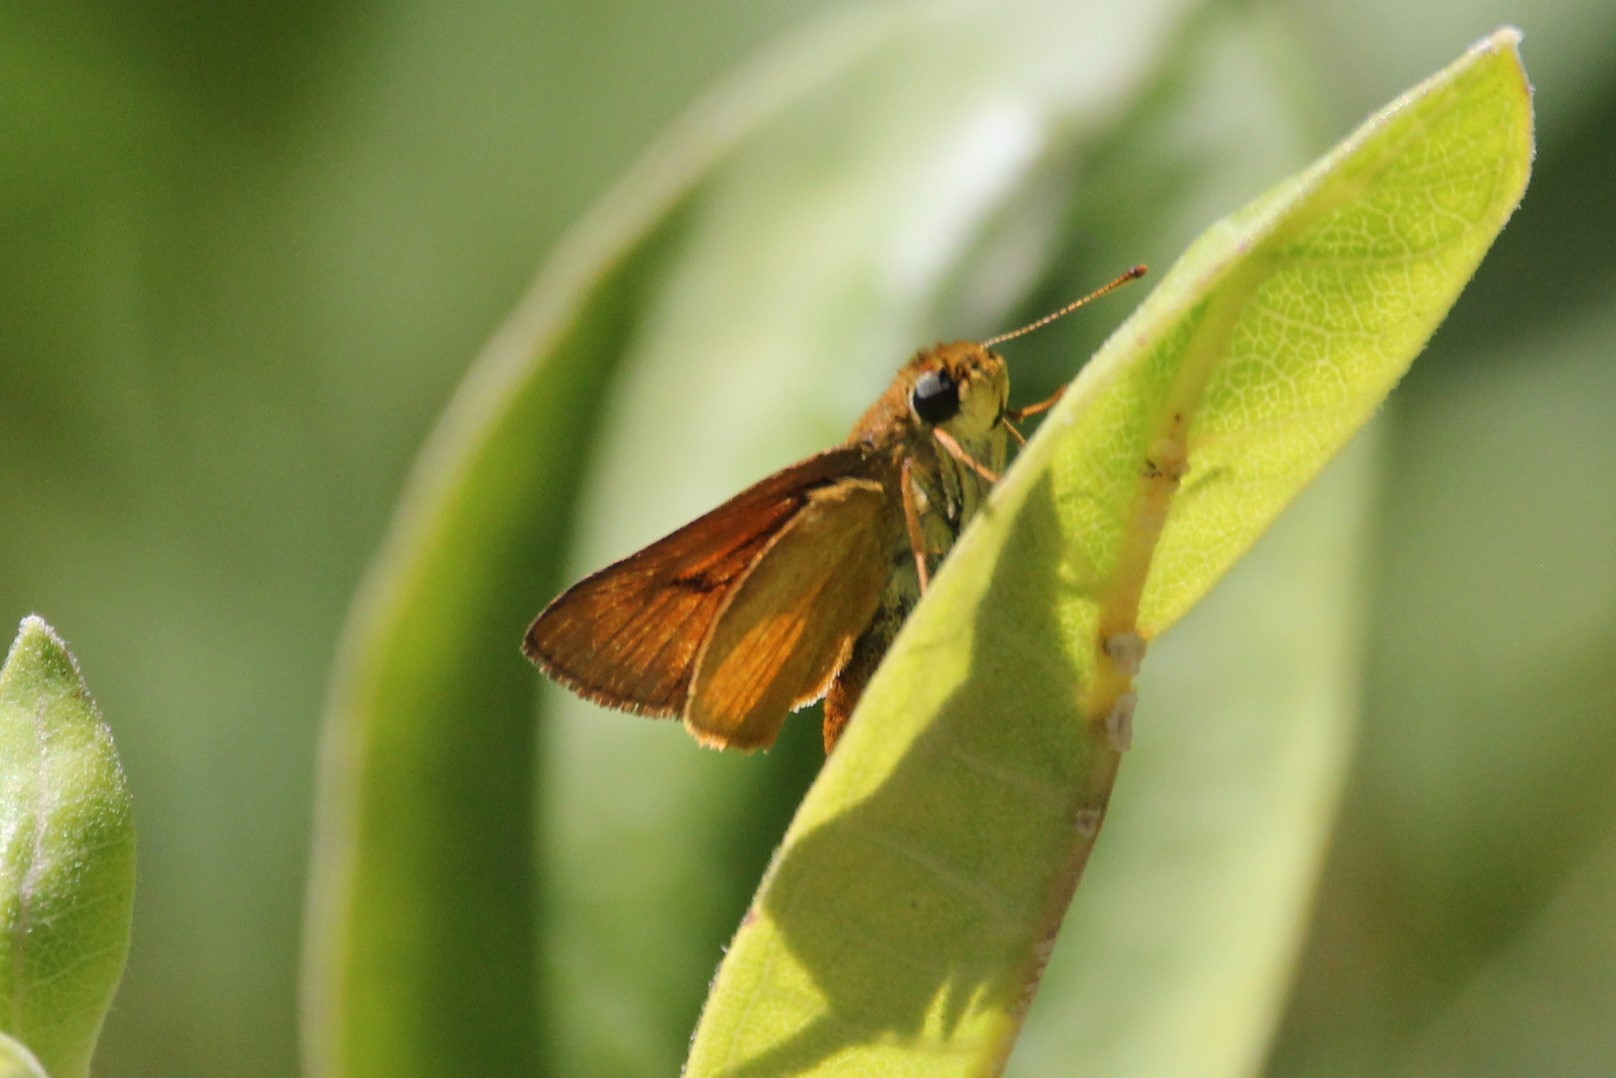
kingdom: Animalia
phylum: Arthropoda
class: Insecta
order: Lepidoptera
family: Hesperiidae
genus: Atrytone
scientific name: Atrytone delaware
